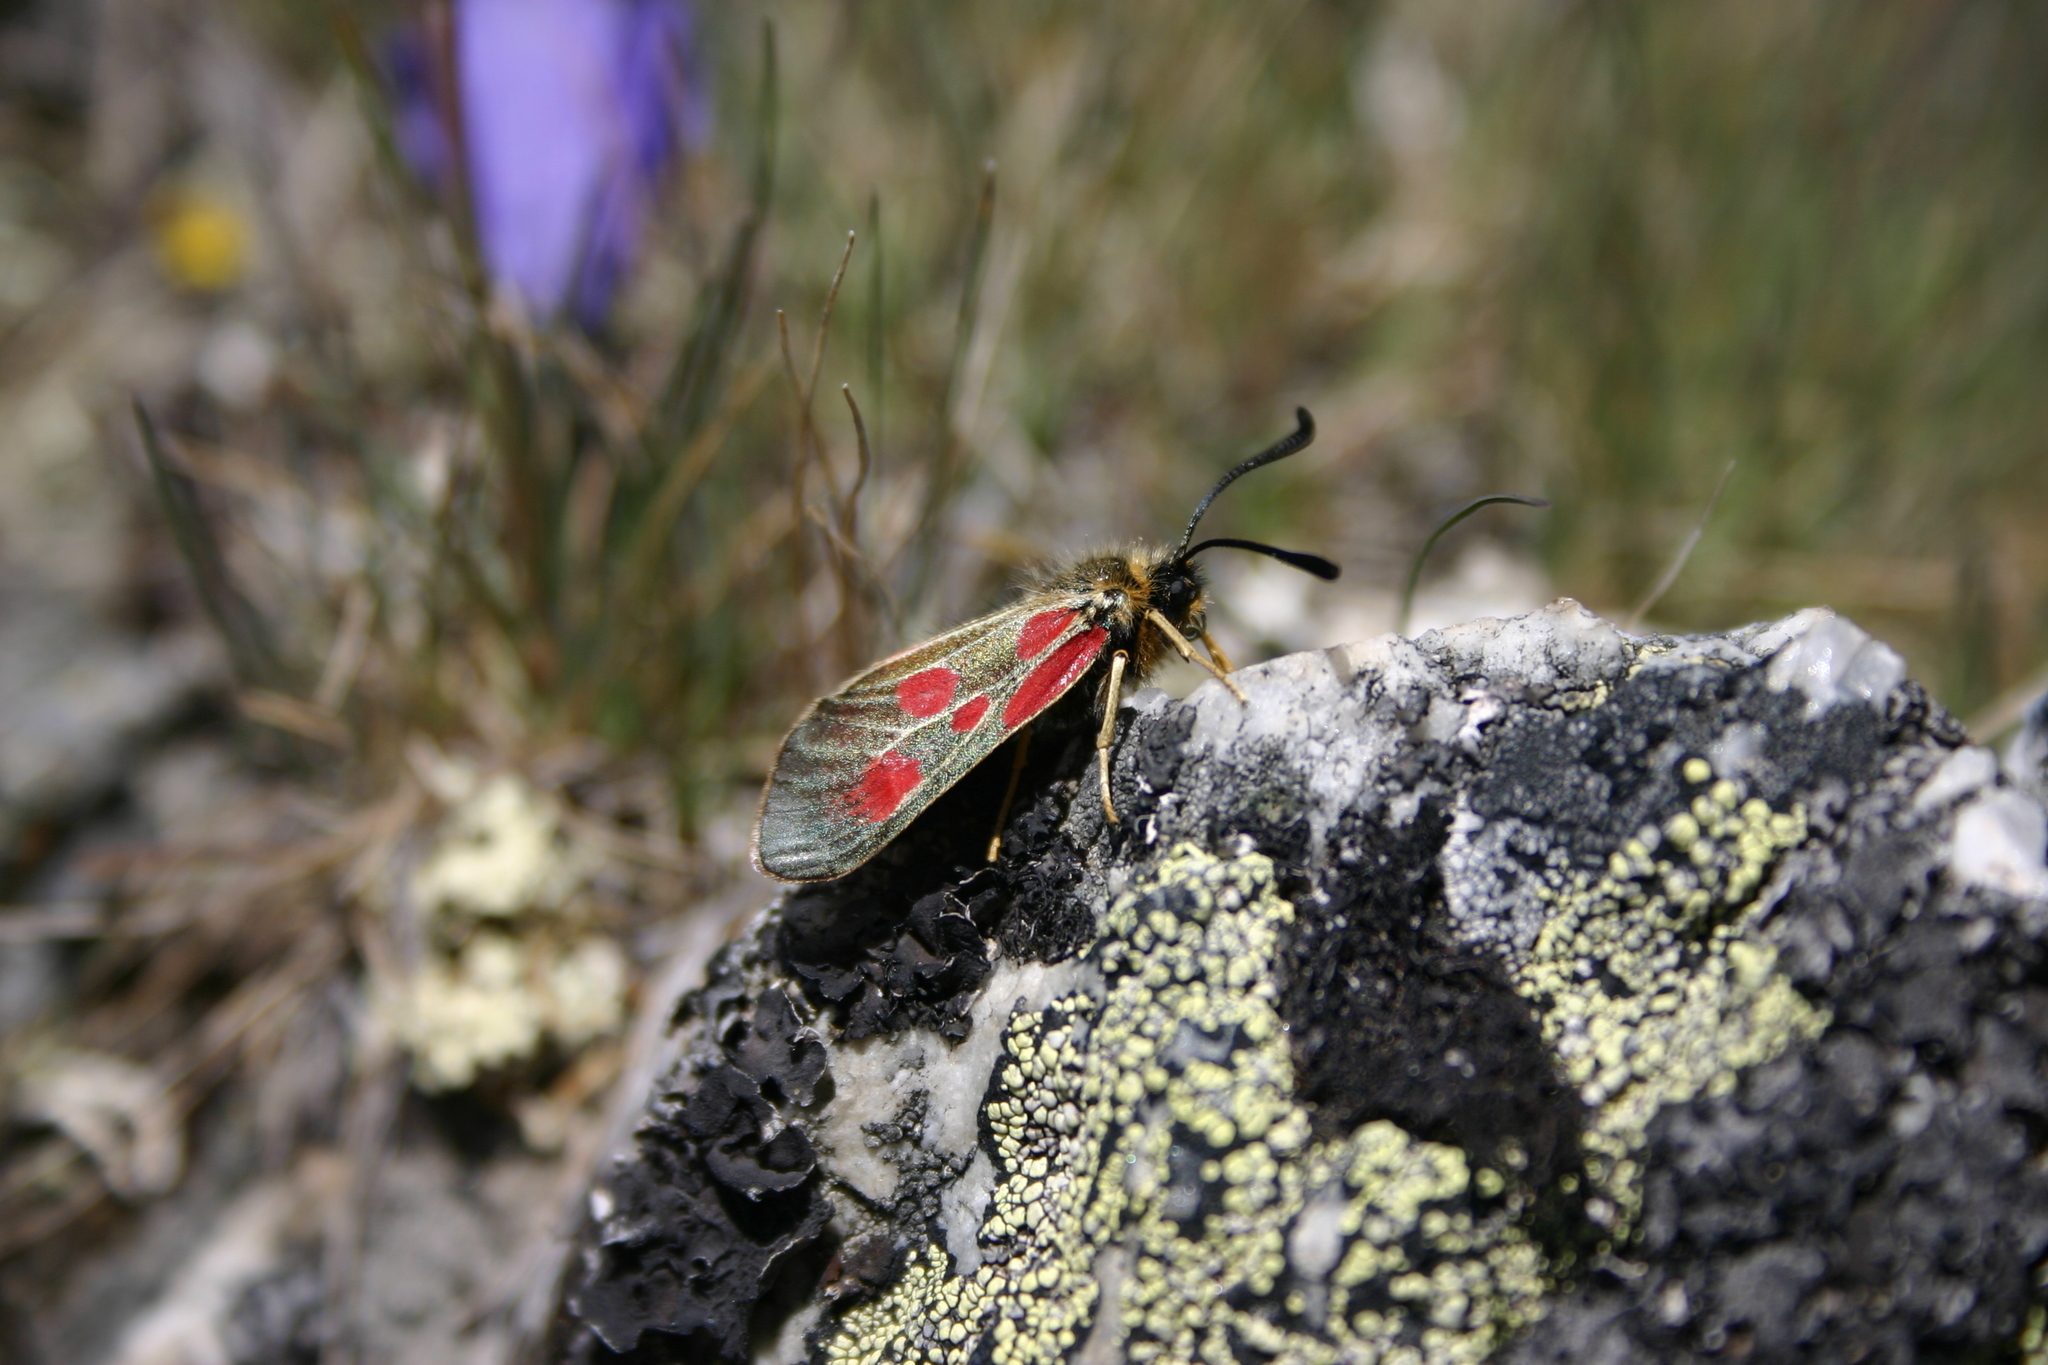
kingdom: Animalia
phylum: Arthropoda
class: Insecta
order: Lepidoptera
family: Zygaenidae
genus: Zygaena
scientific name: Zygaena exulans
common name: Scotch burnet
